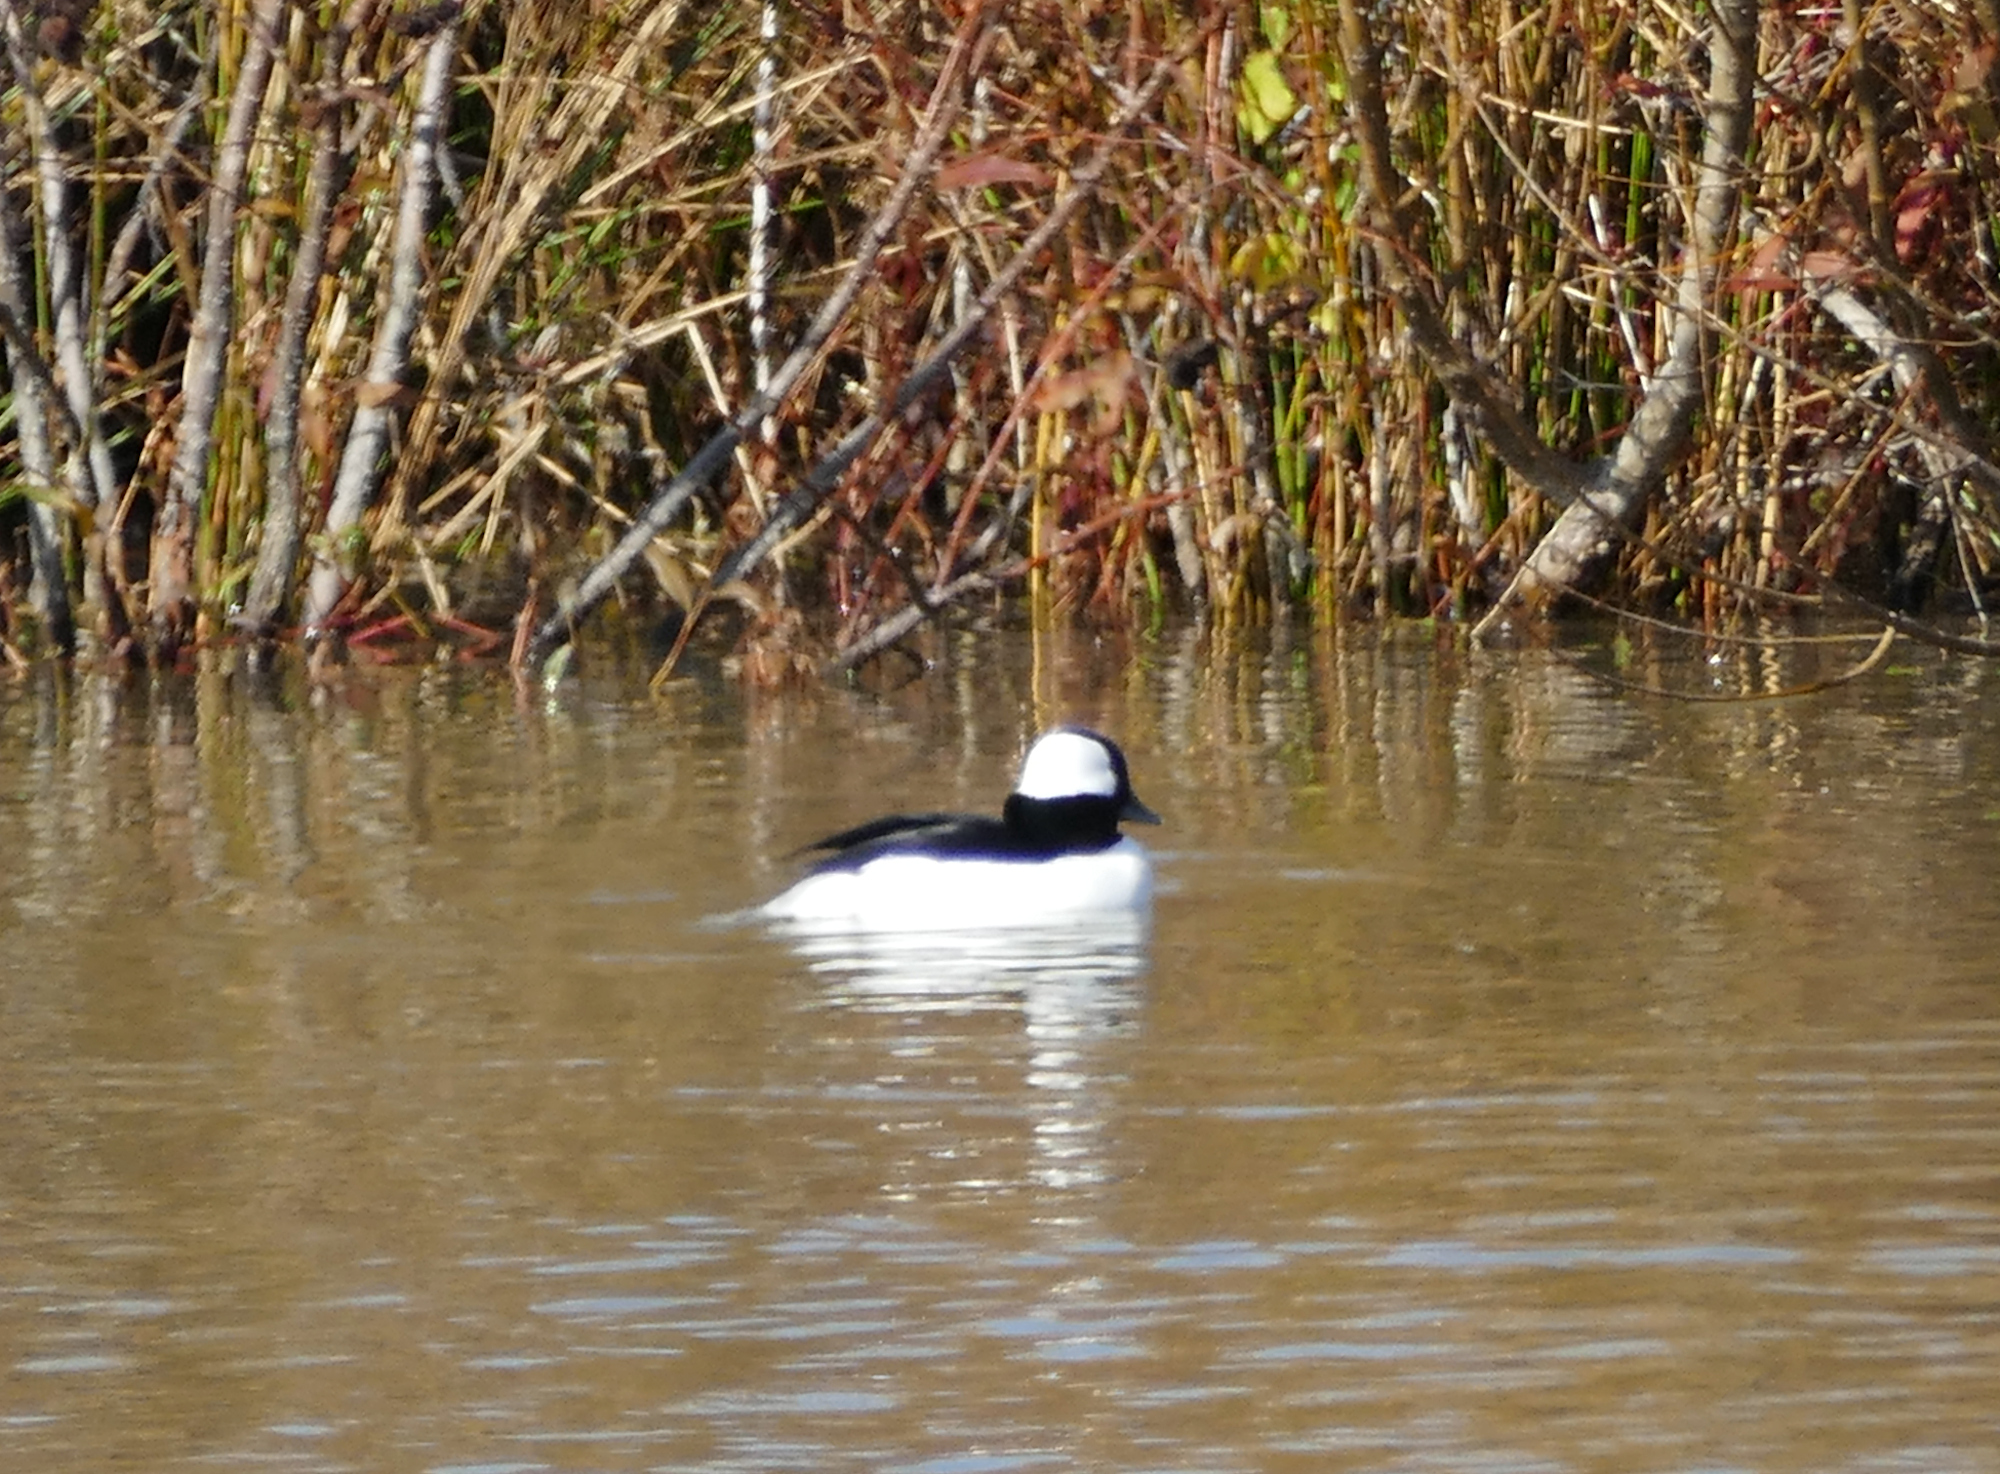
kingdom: Animalia
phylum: Chordata
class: Aves
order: Anseriformes
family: Anatidae
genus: Bucephala
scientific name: Bucephala albeola
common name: Bufflehead
